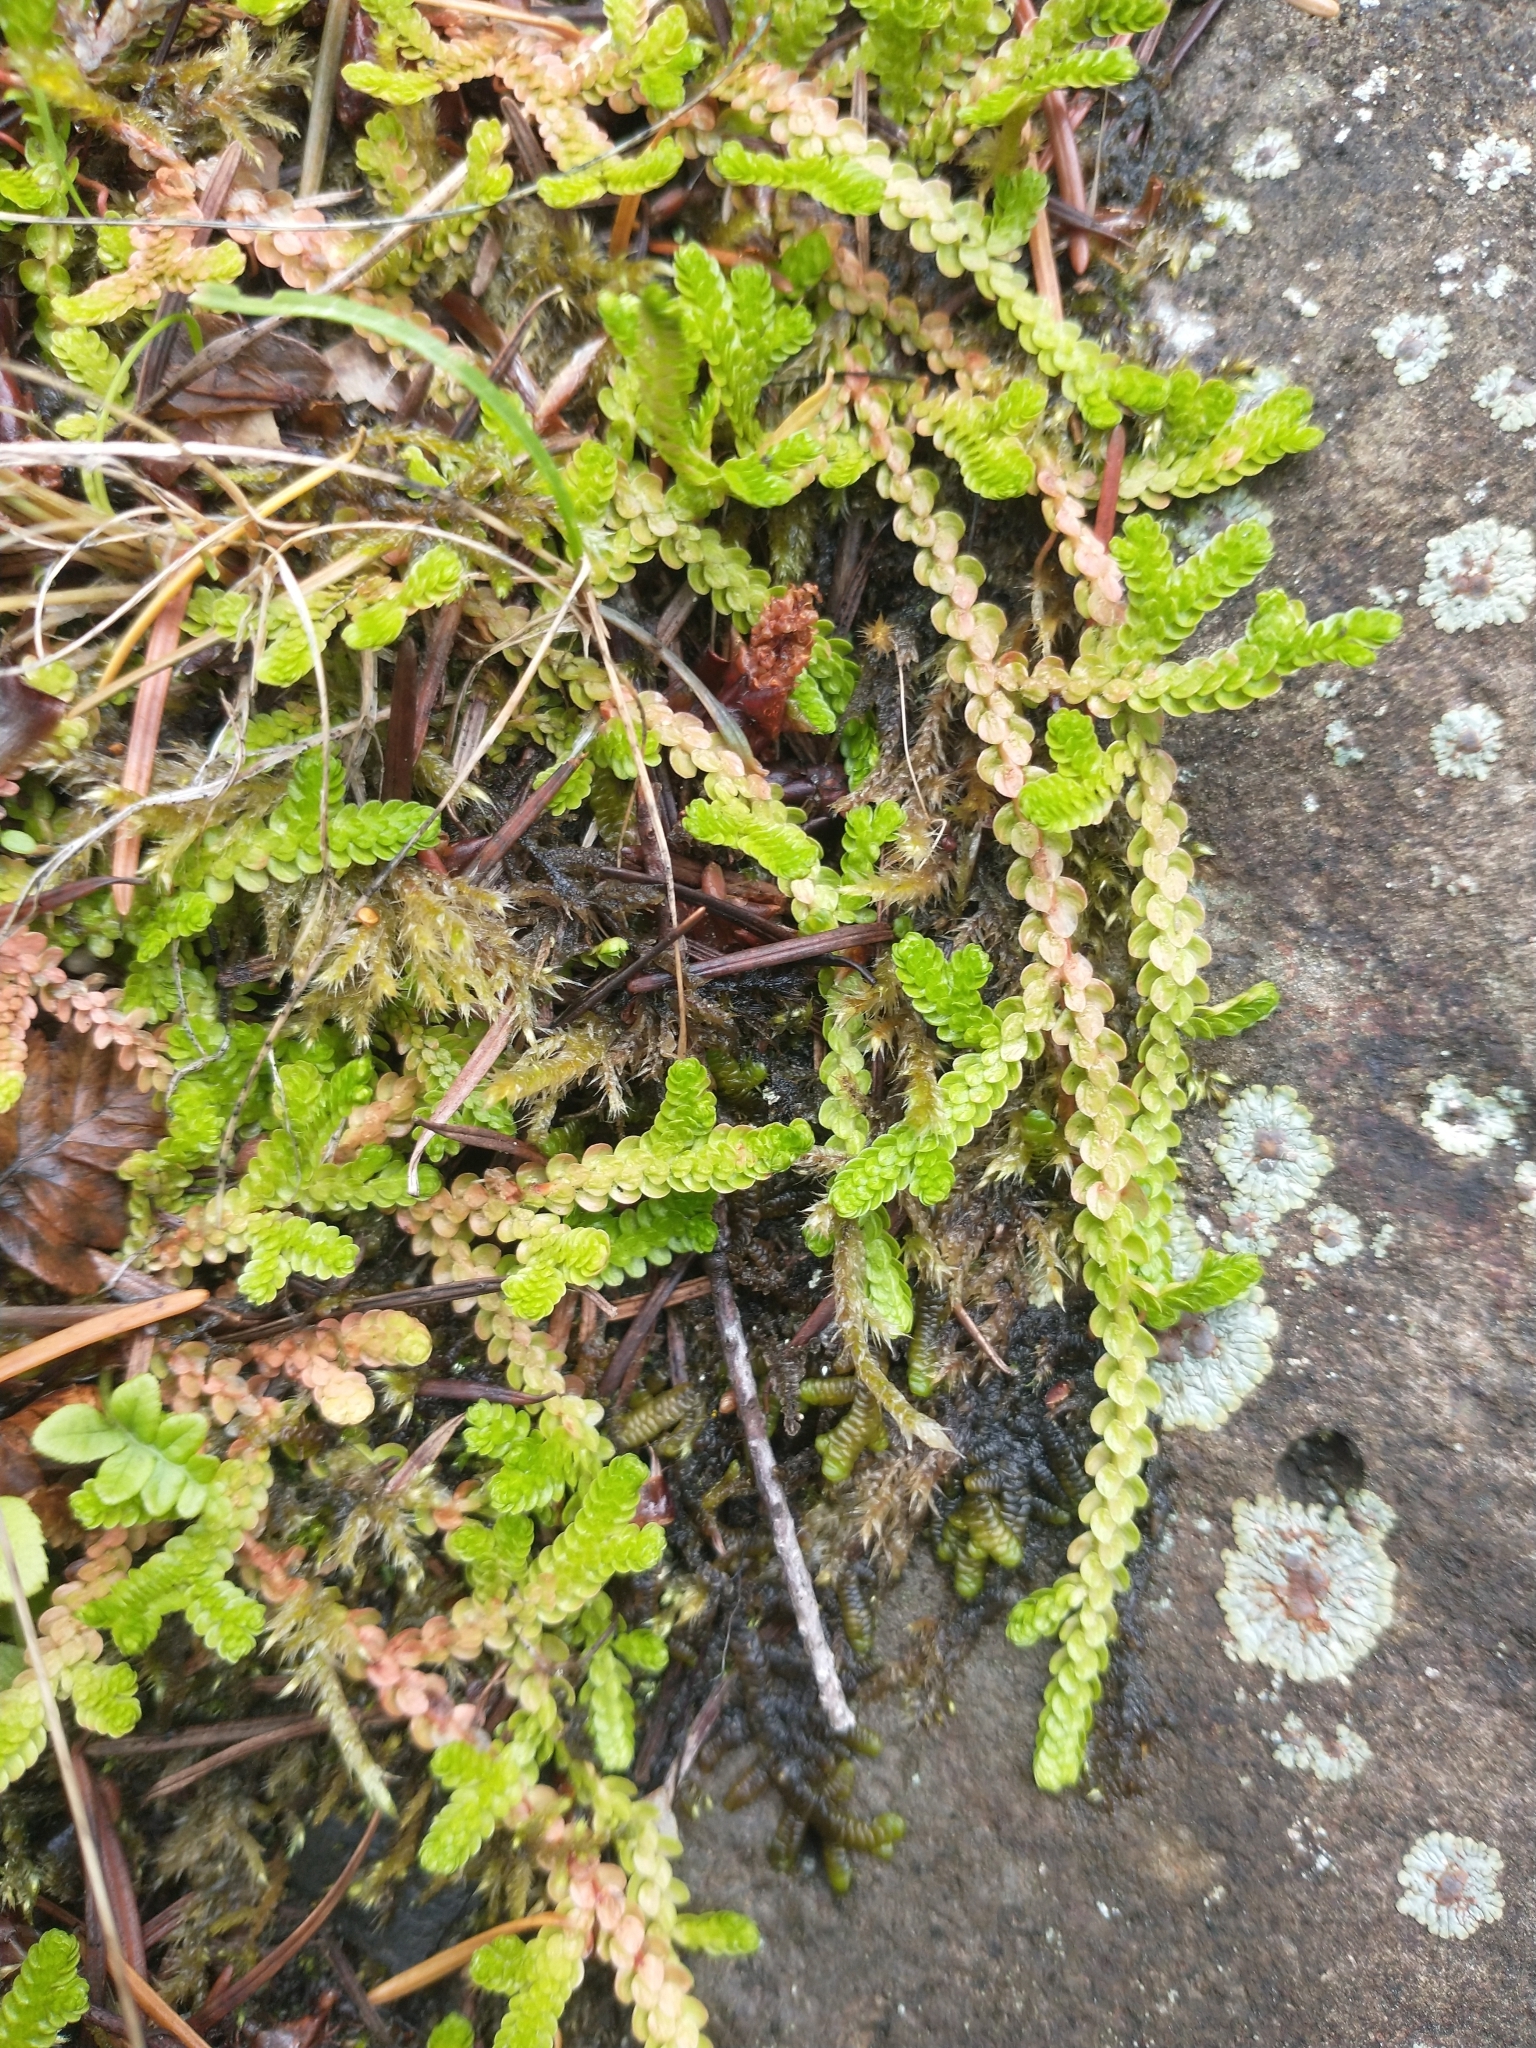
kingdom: Plantae
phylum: Tracheophyta
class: Lycopodiopsida
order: Selaginellales
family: Selaginellaceae
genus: Selaginella
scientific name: Selaginella douglasii
